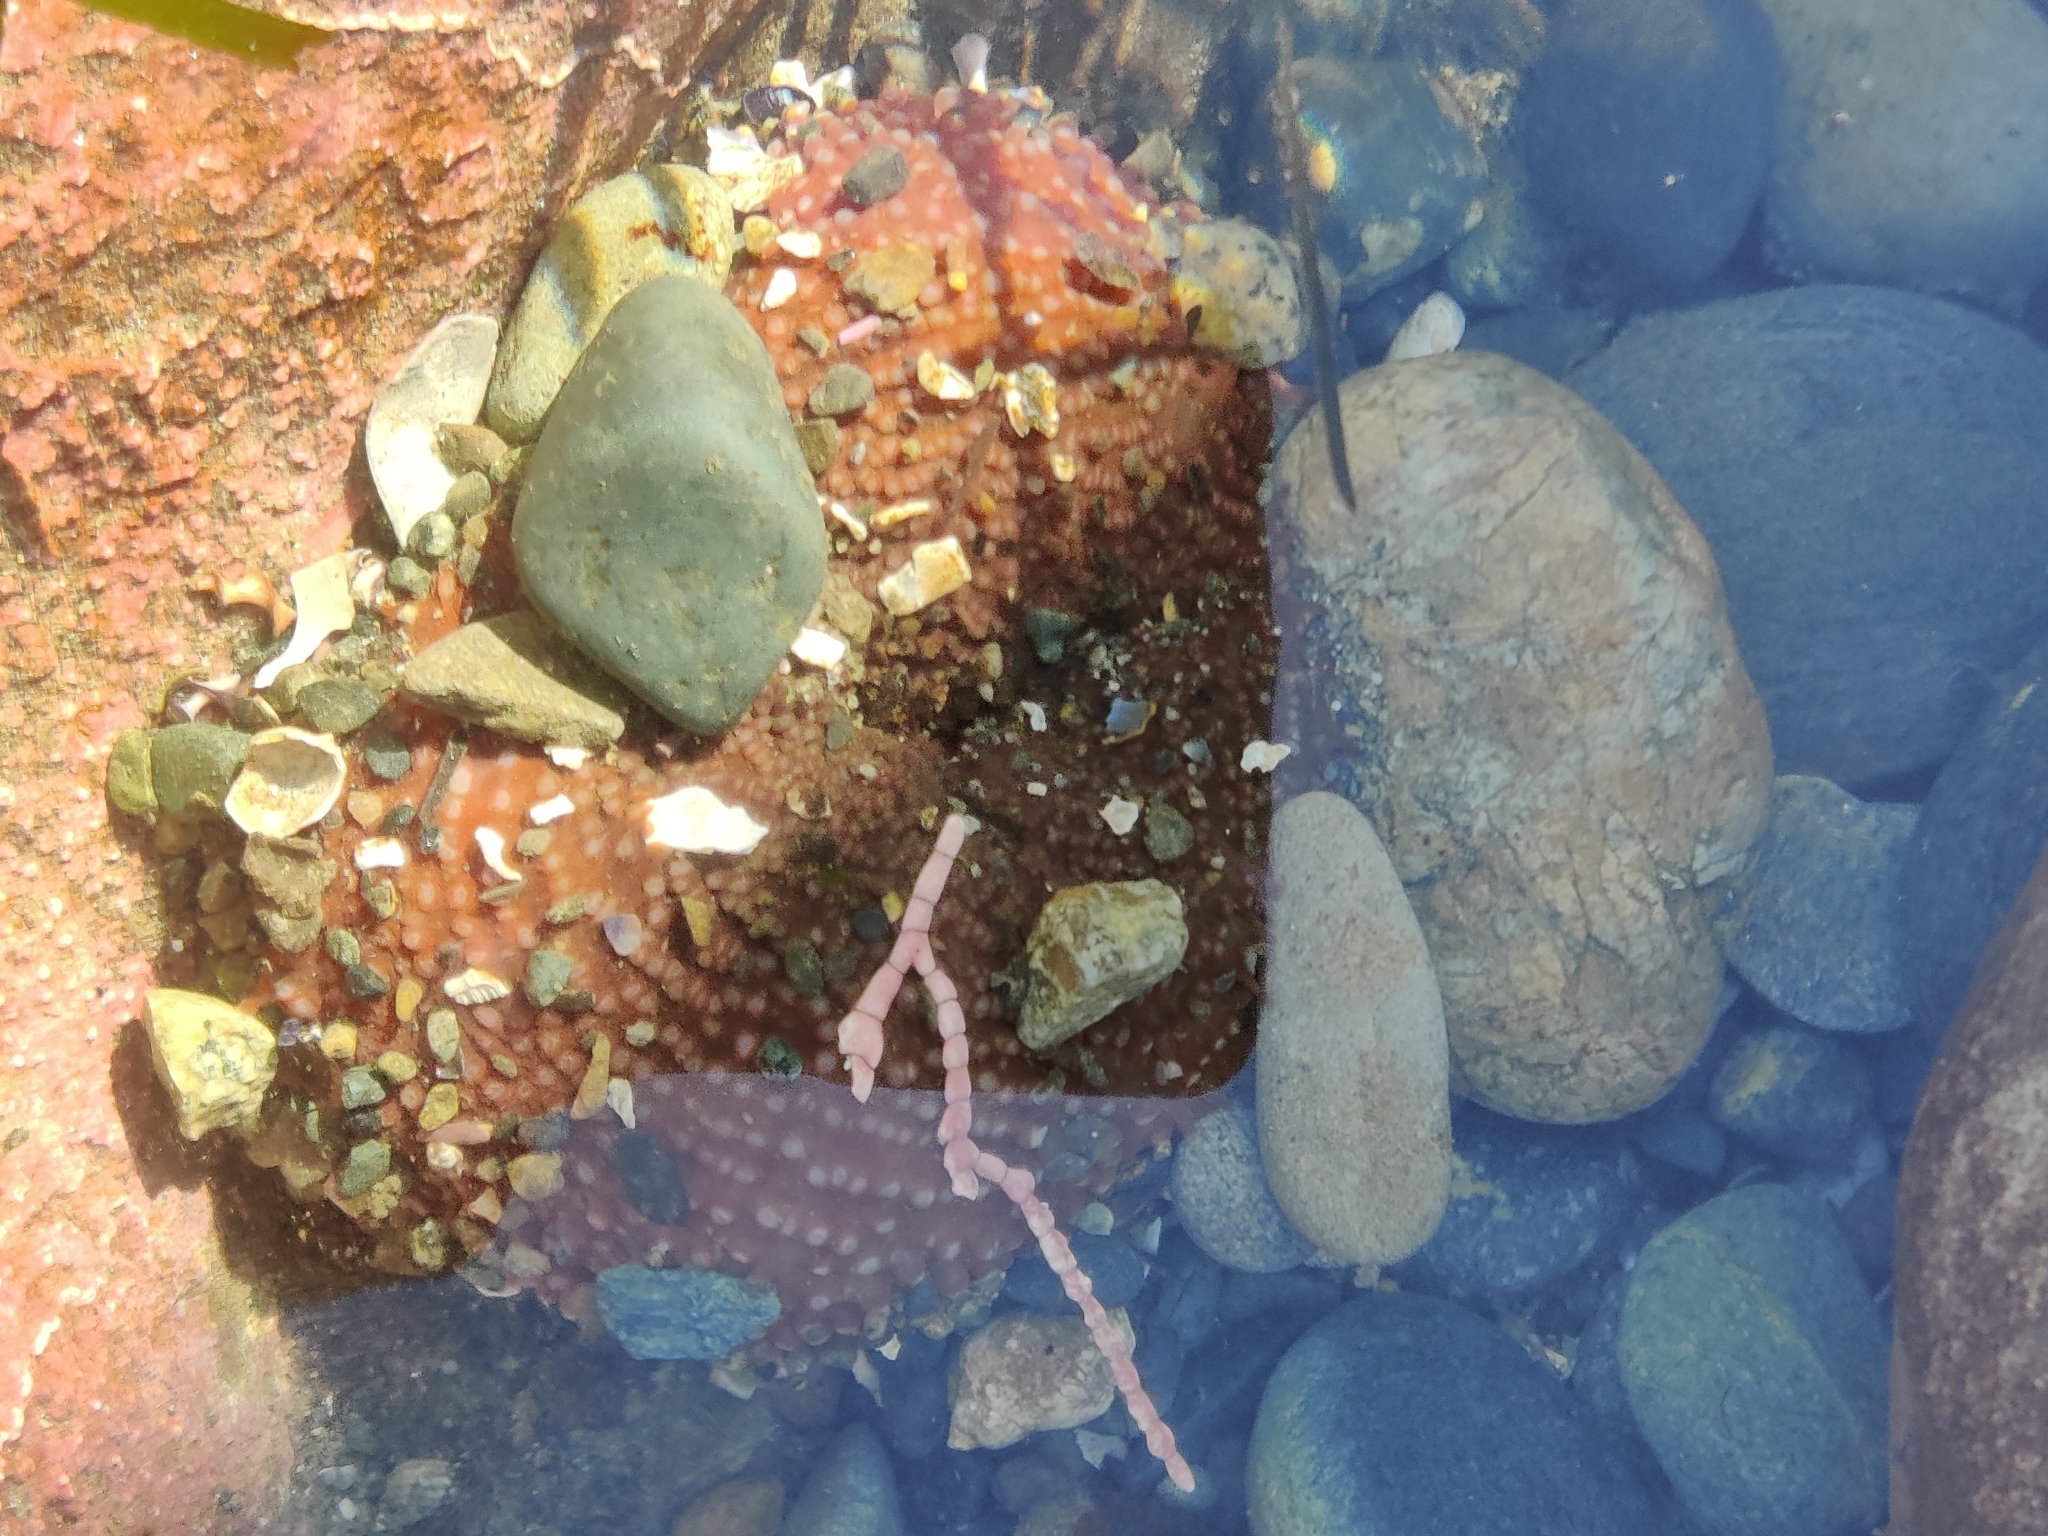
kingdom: Animalia
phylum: Cnidaria
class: Anthozoa
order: Actiniaria
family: Actiniidae
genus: Urticina
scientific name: Urticina grebelnyi
